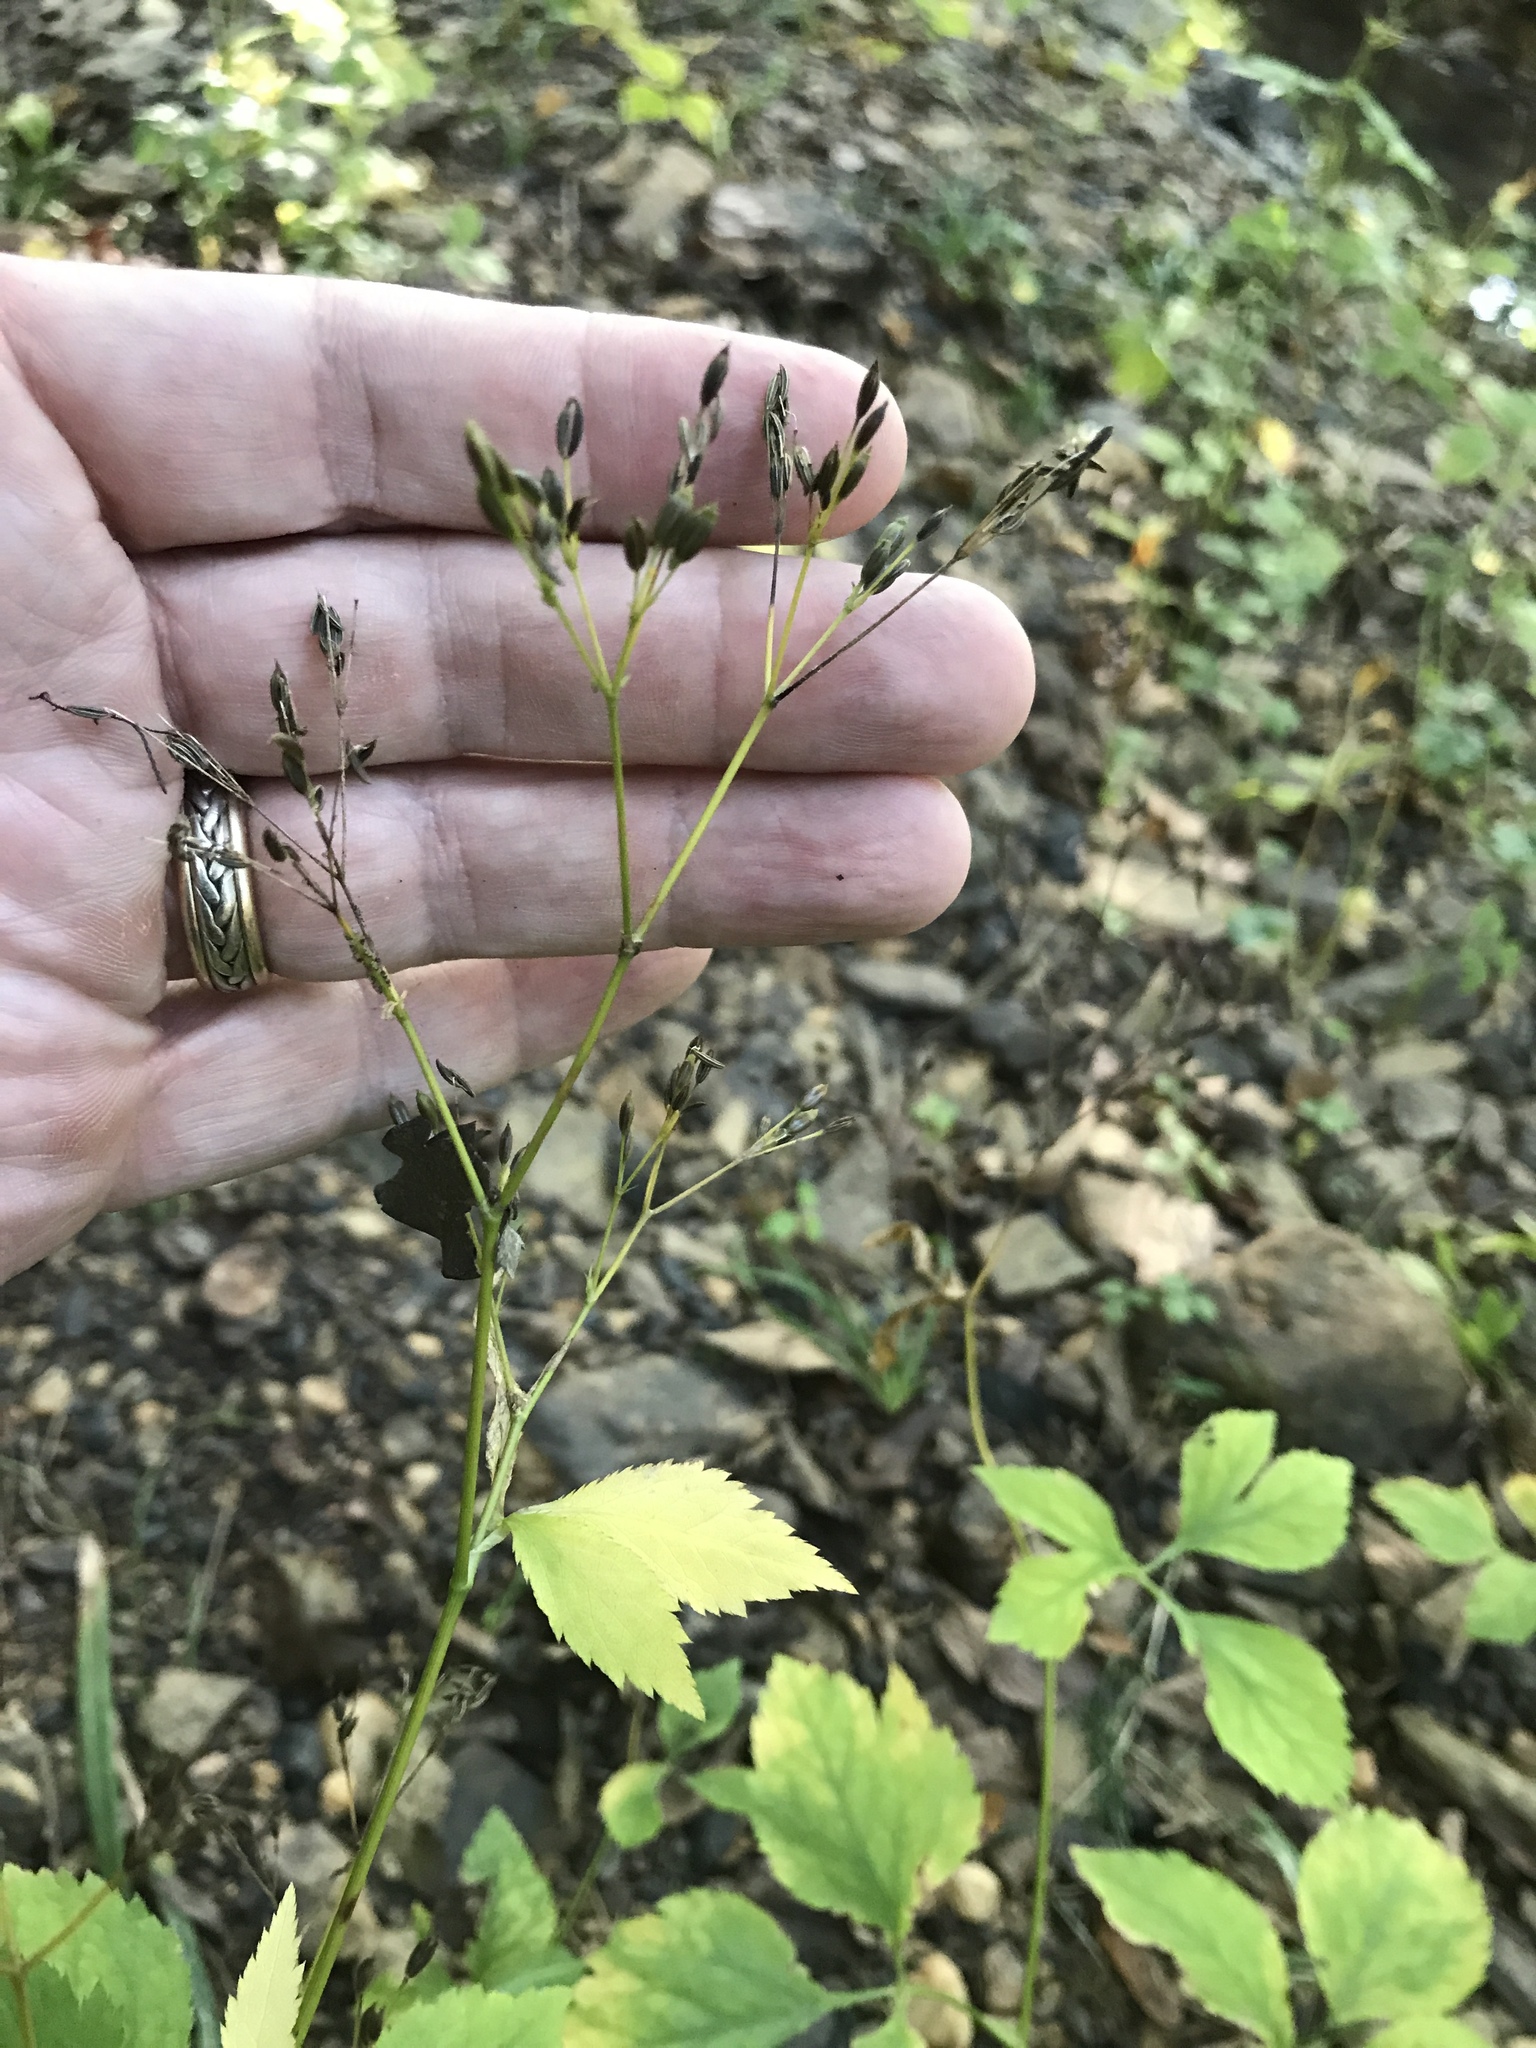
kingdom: Plantae
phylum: Tracheophyta
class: Magnoliopsida
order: Apiales
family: Apiaceae
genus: Cryptotaenia
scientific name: Cryptotaenia canadensis
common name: Honewort
